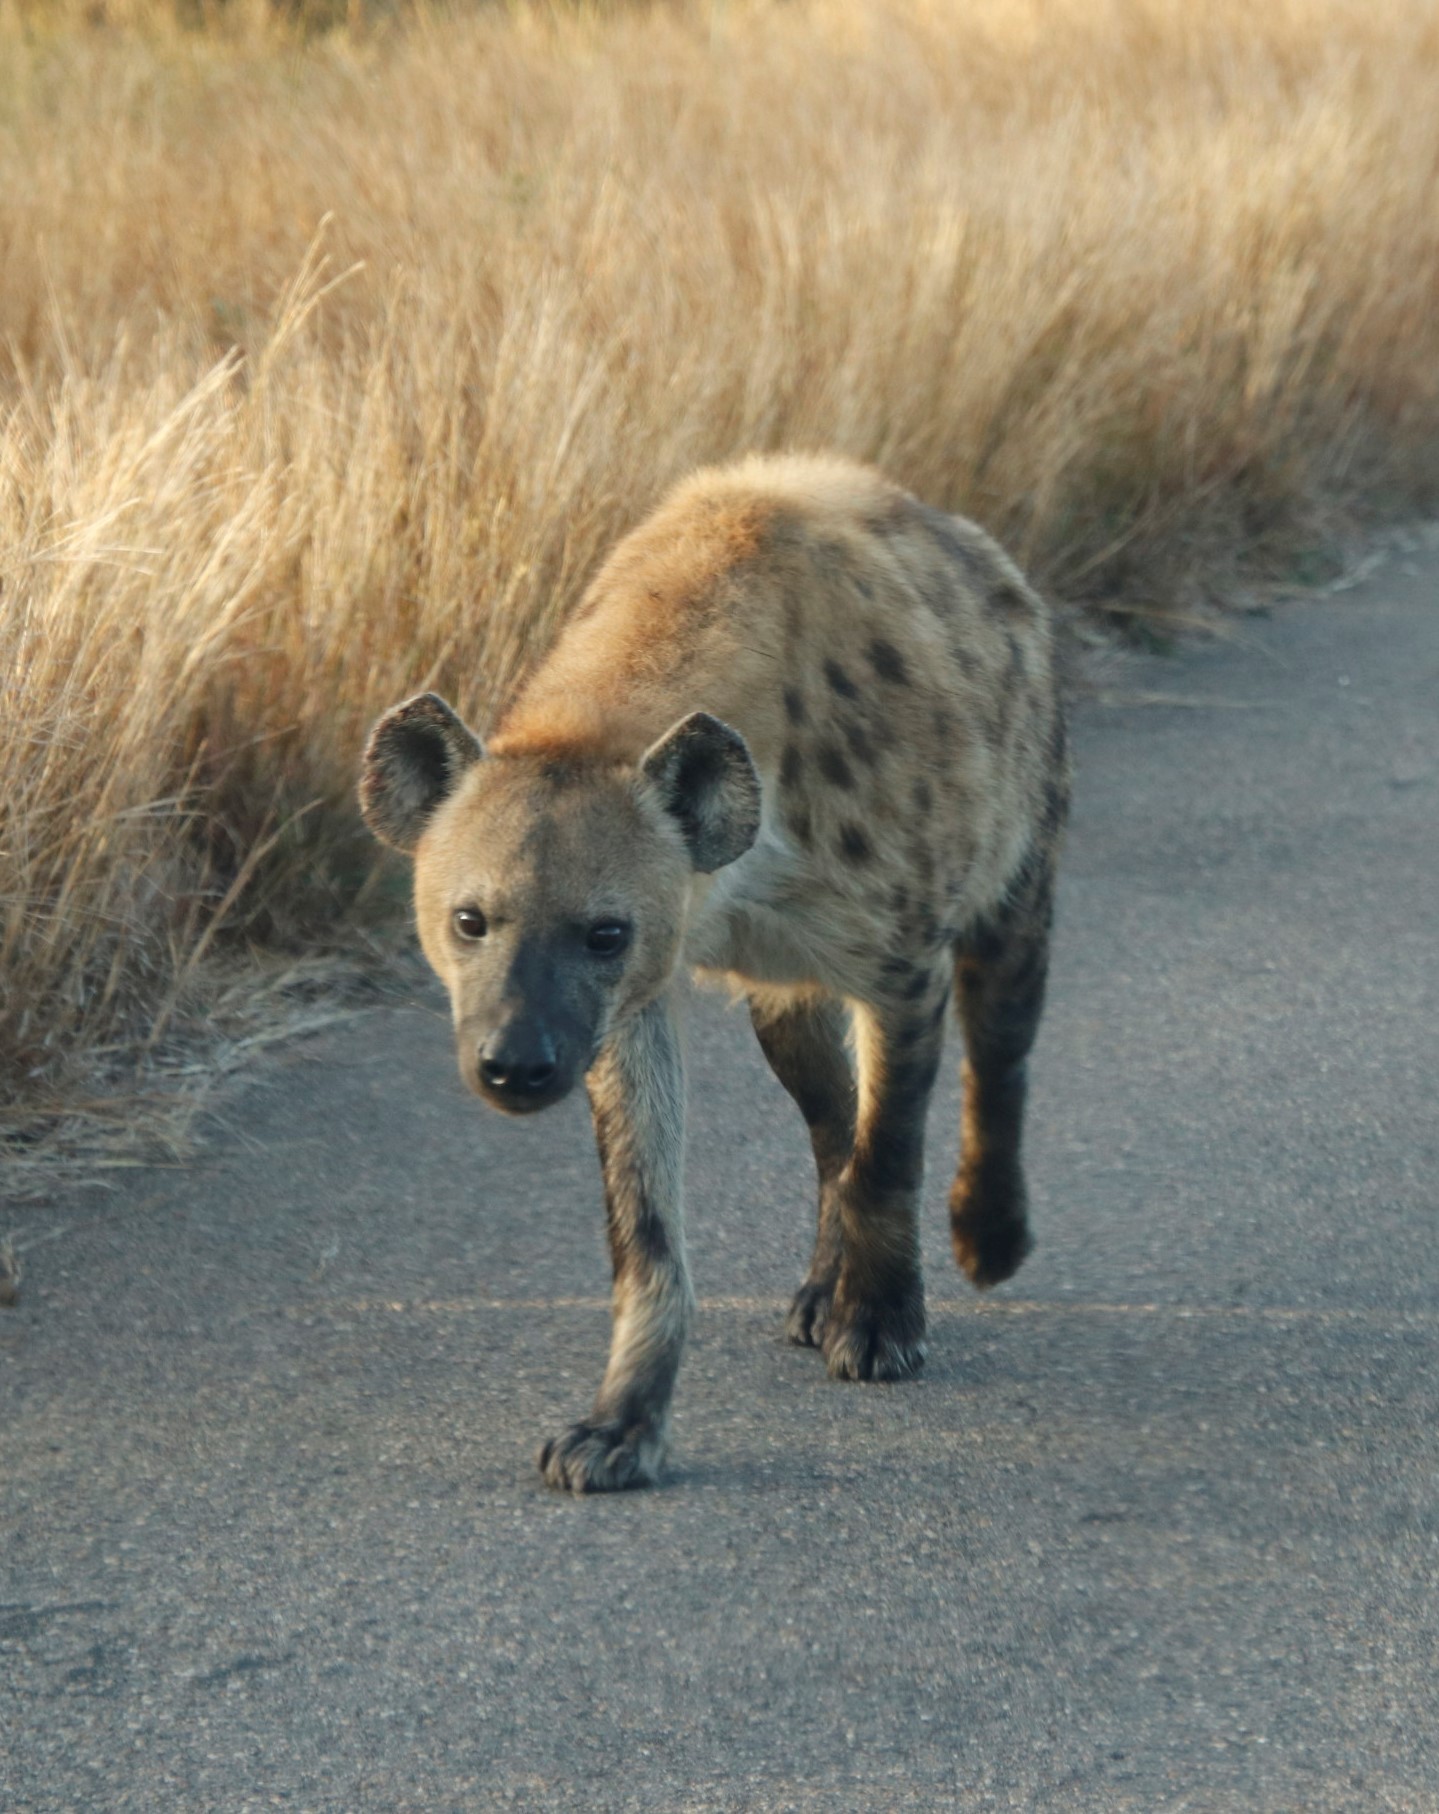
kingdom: Animalia
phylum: Chordata
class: Mammalia
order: Carnivora
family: Hyaenidae
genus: Crocuta
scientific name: Crocuta crocuta
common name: Spotted hyaena
